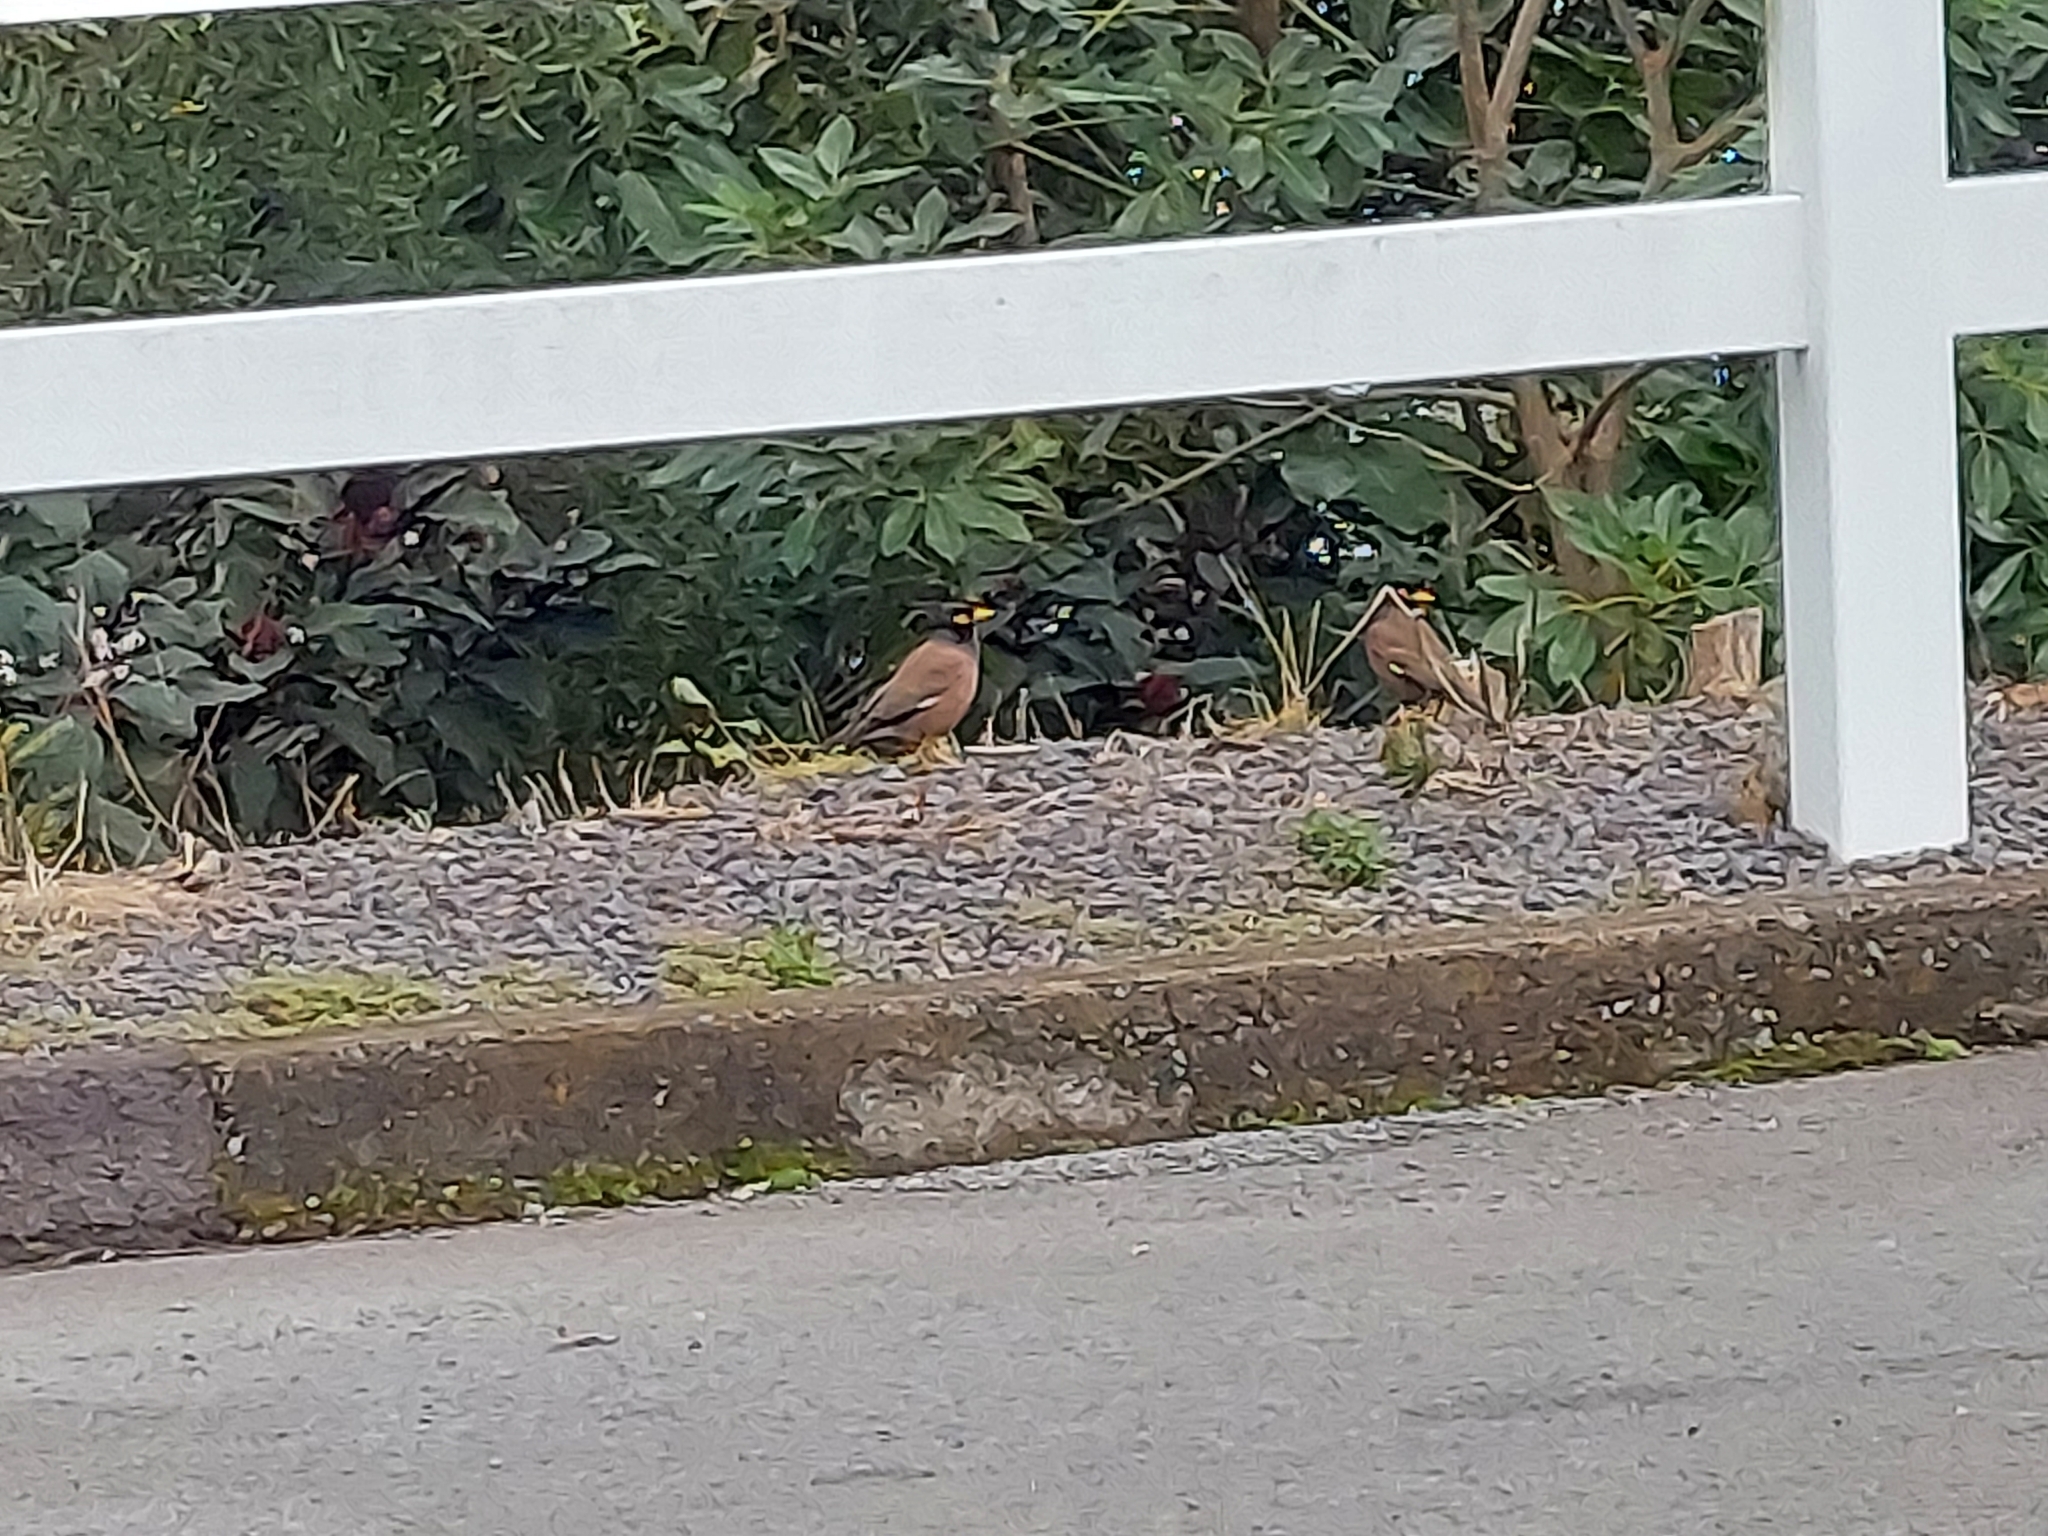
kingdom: Animalia
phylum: Chordata
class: Aves
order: Passeriformes
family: Sturnidae
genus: Acridotheres
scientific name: Acridotheres tristis
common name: Common myna
